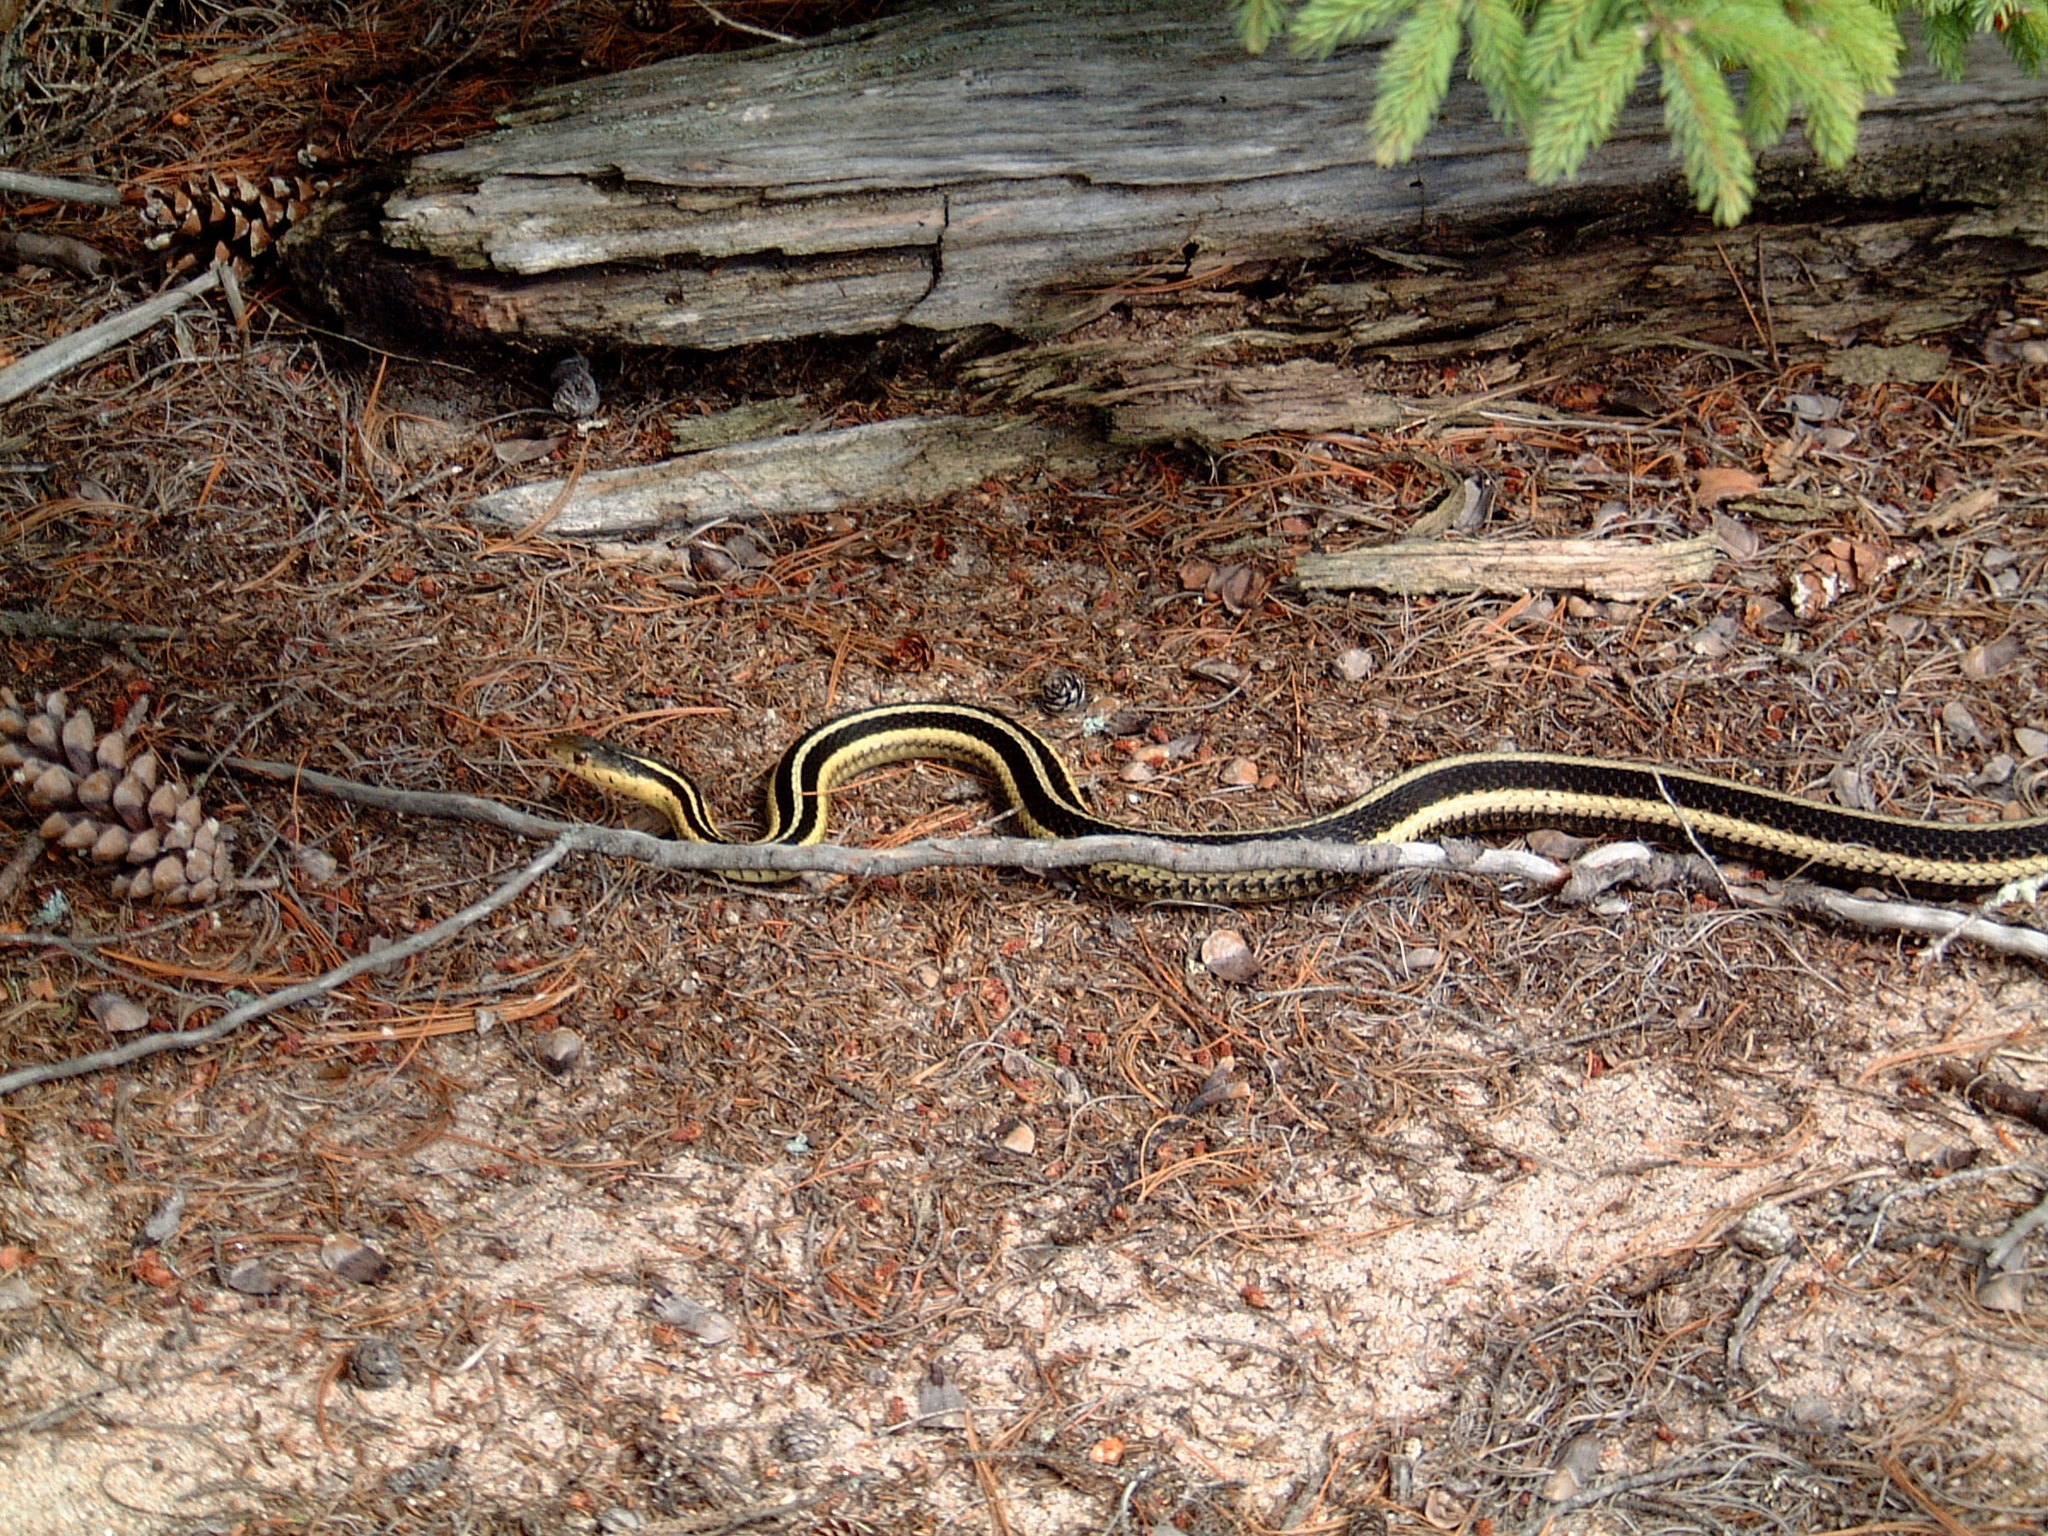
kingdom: Animalia
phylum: Chordata
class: Squamata
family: Colubridae
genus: Thamnophis
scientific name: Thamnophis sirtalis
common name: Common garter snake
